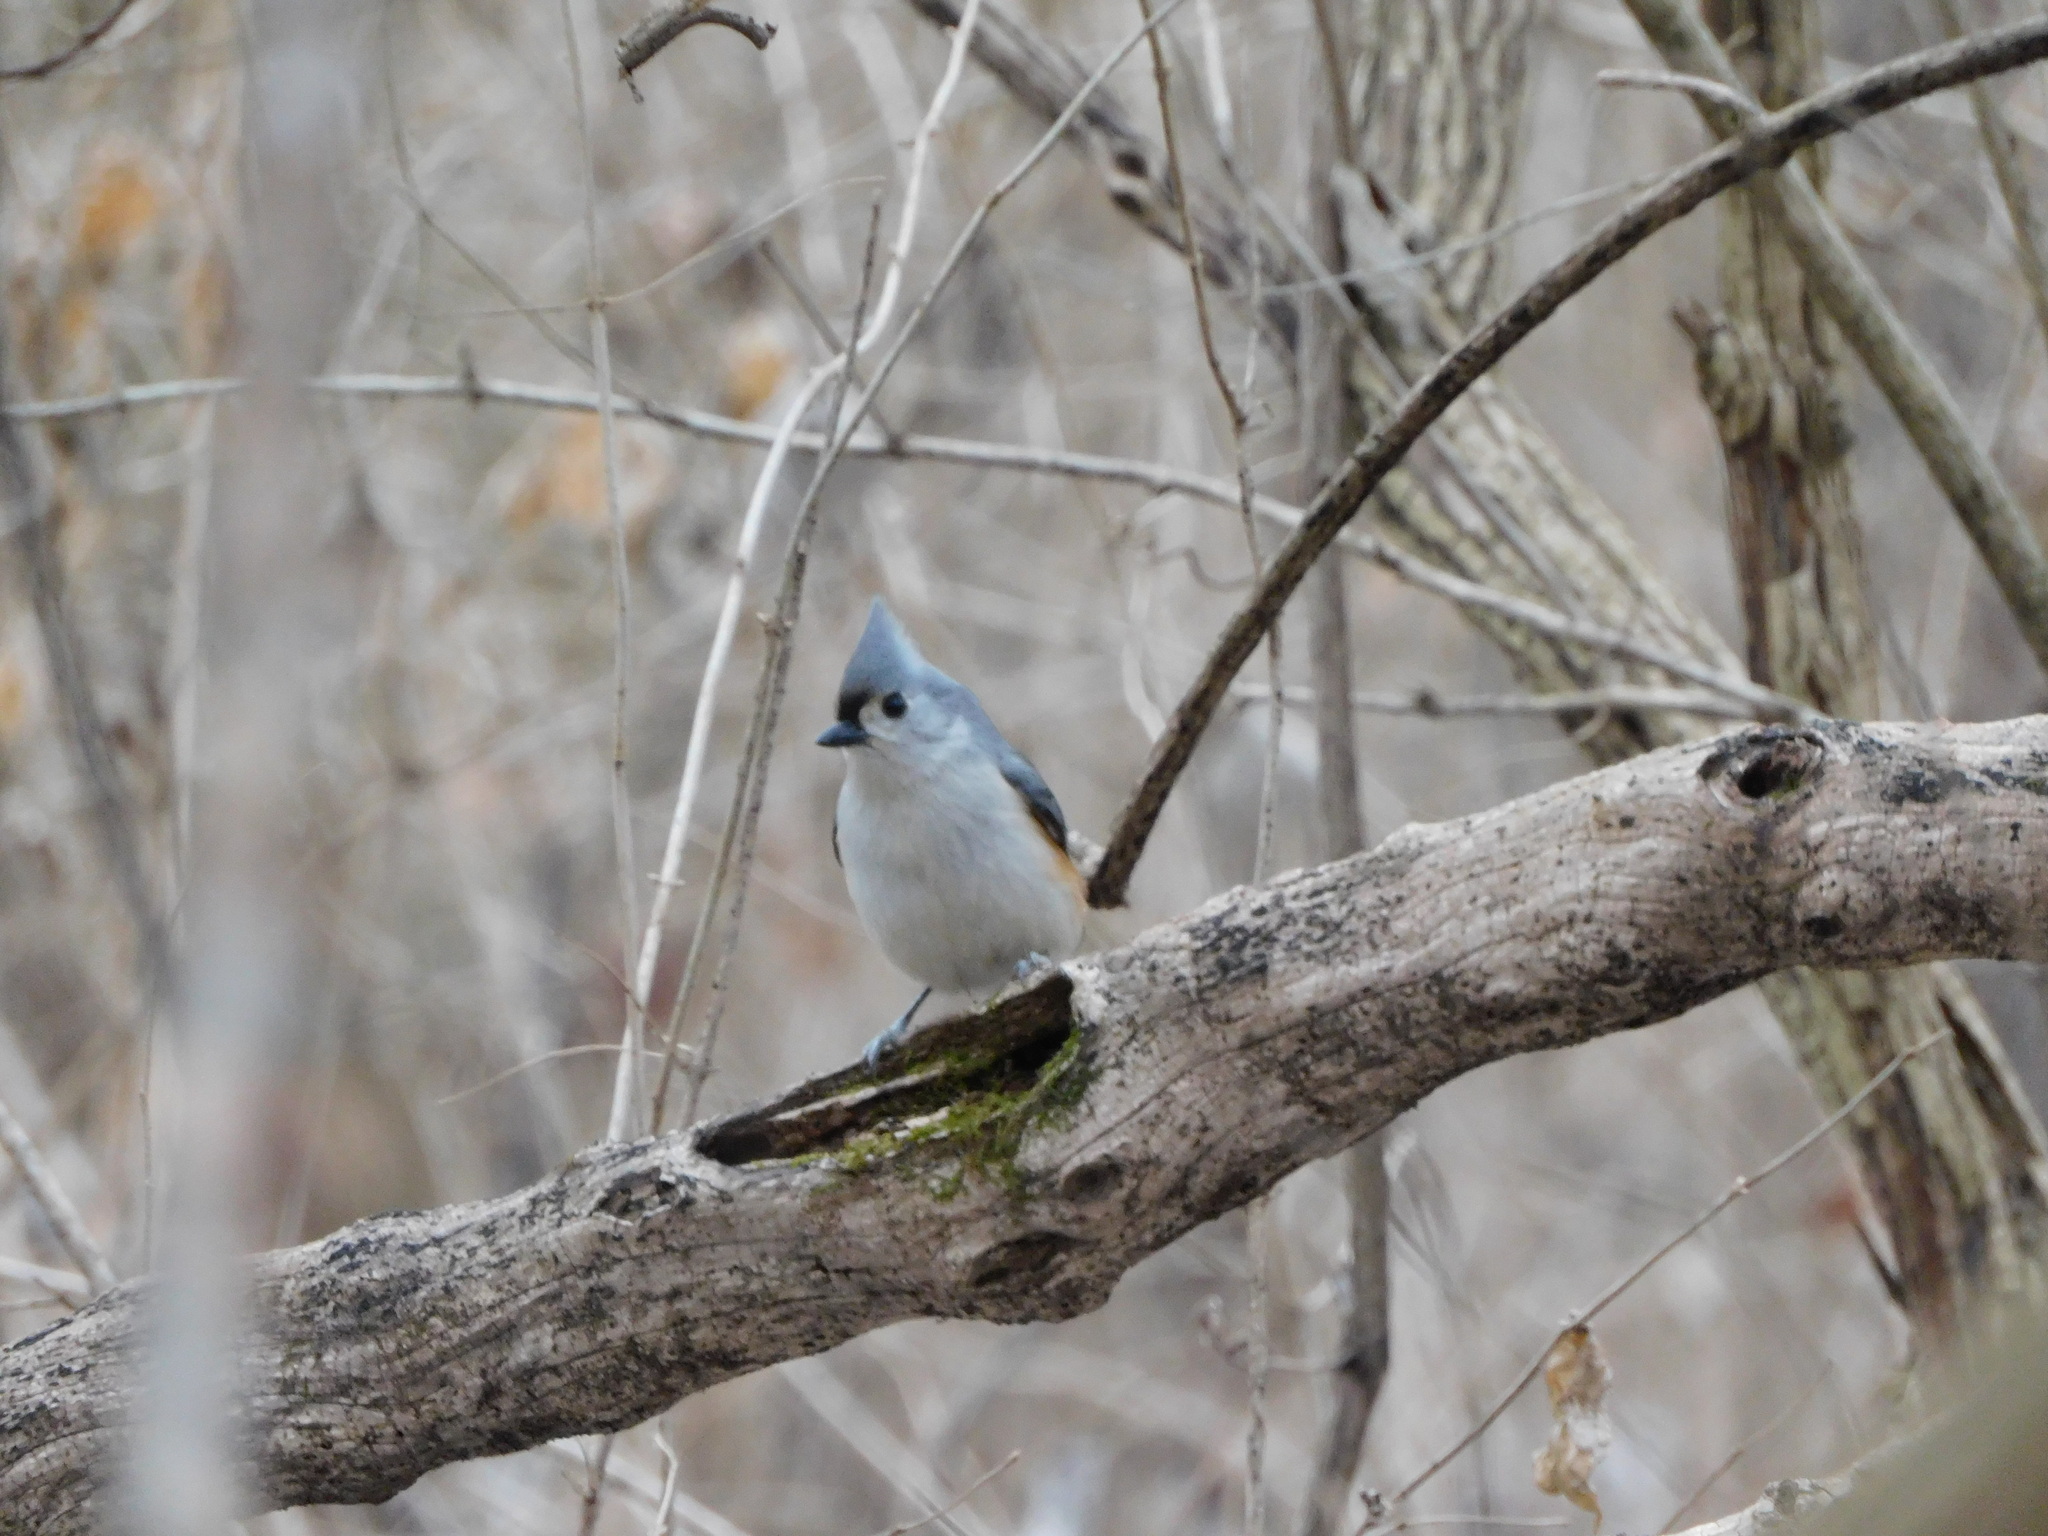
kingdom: Animalia
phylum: Chordata
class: Aves
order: Passeriformes
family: Paridae
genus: Baeolophus
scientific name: Baeolophus bicolor
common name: Tufted titmouse
